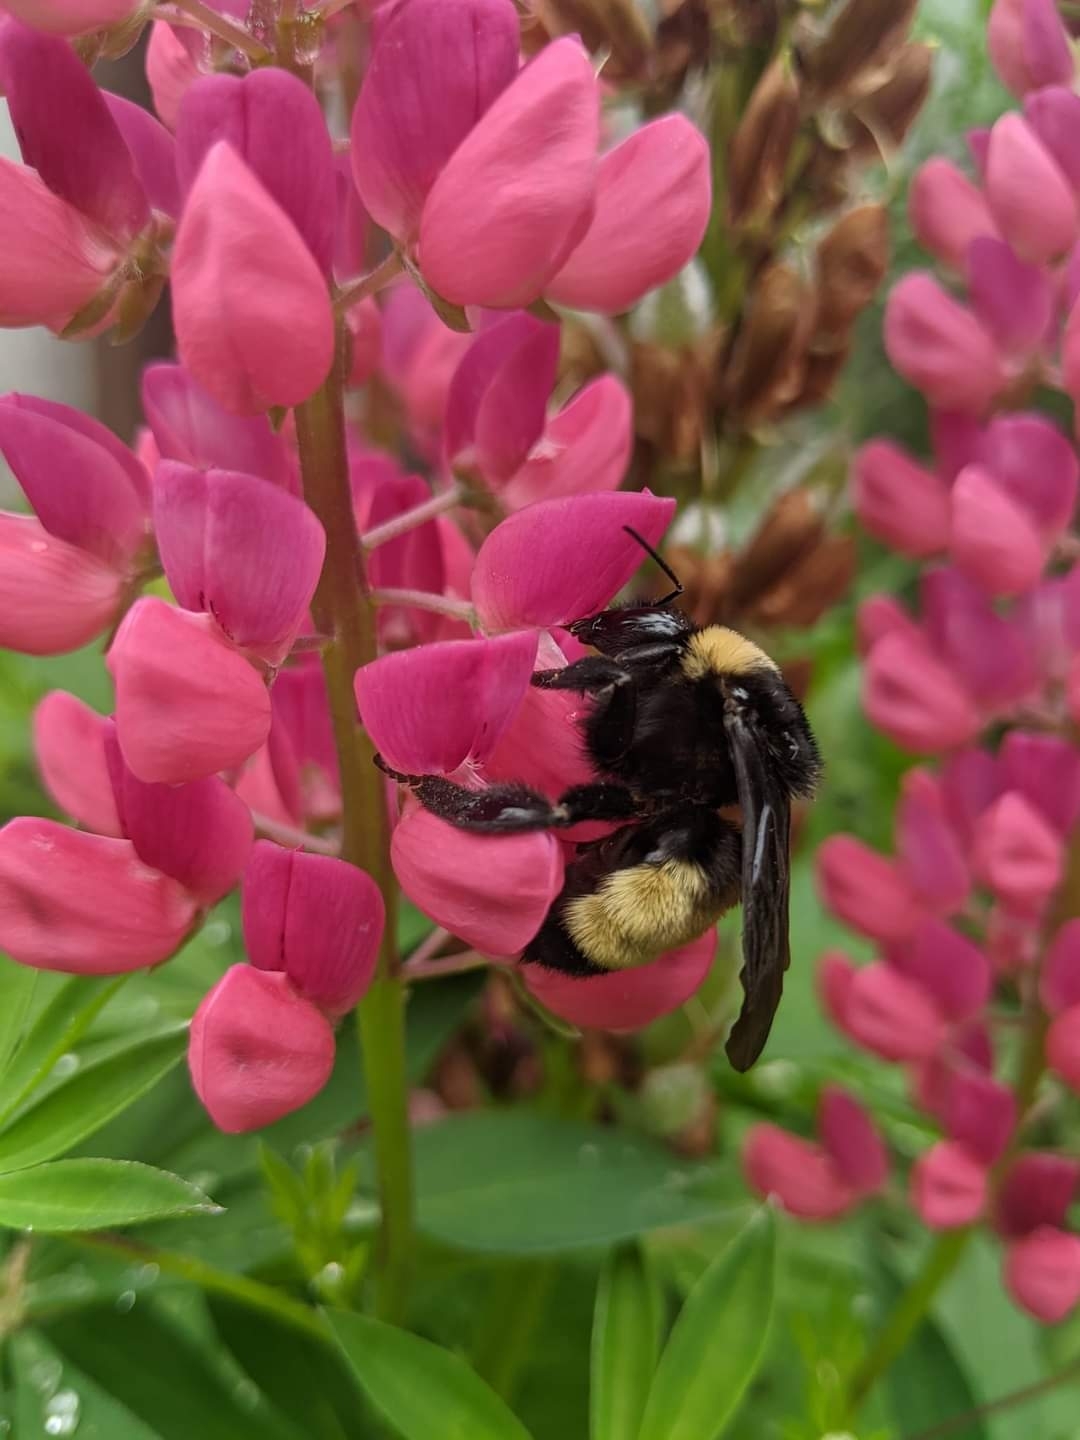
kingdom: Animalia
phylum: Arthropoda
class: Insecta
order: Hymenoptera
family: Apidae
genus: Bombus
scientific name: Bombus pensylvanicus
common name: Bumble bee
